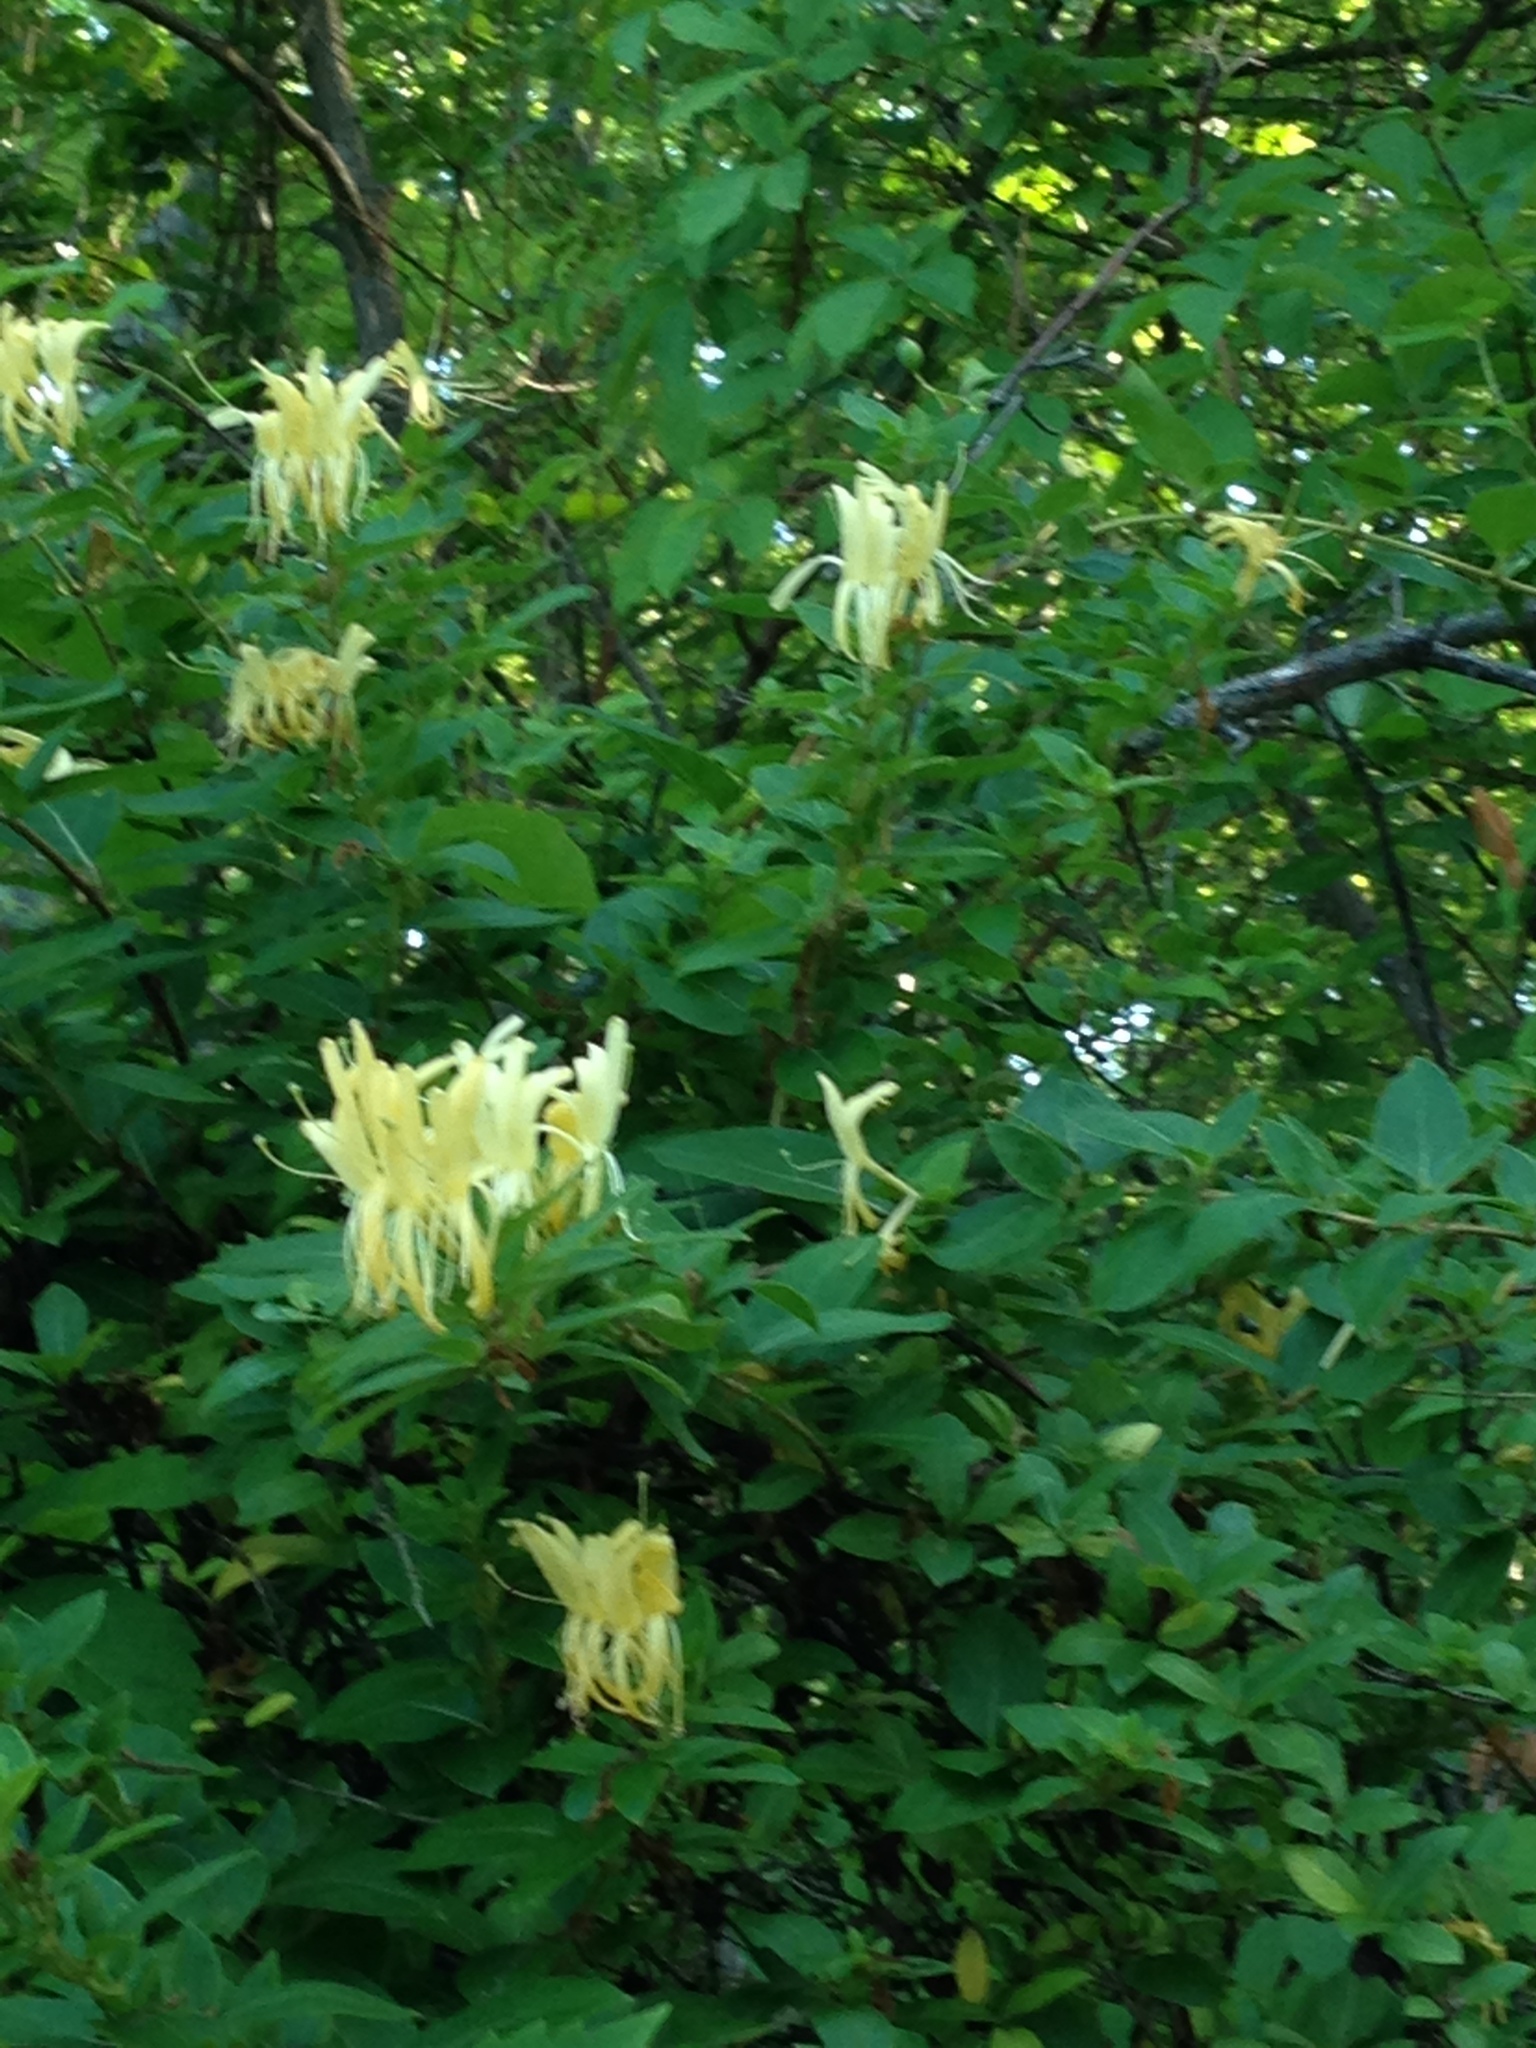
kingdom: Plantae
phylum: Tracheophyta
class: Magnoliopsida
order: Dipsacales
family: Caprifoliaceae
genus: Lonicera
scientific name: Lonicera japonica
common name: Japanese honeysuckle
